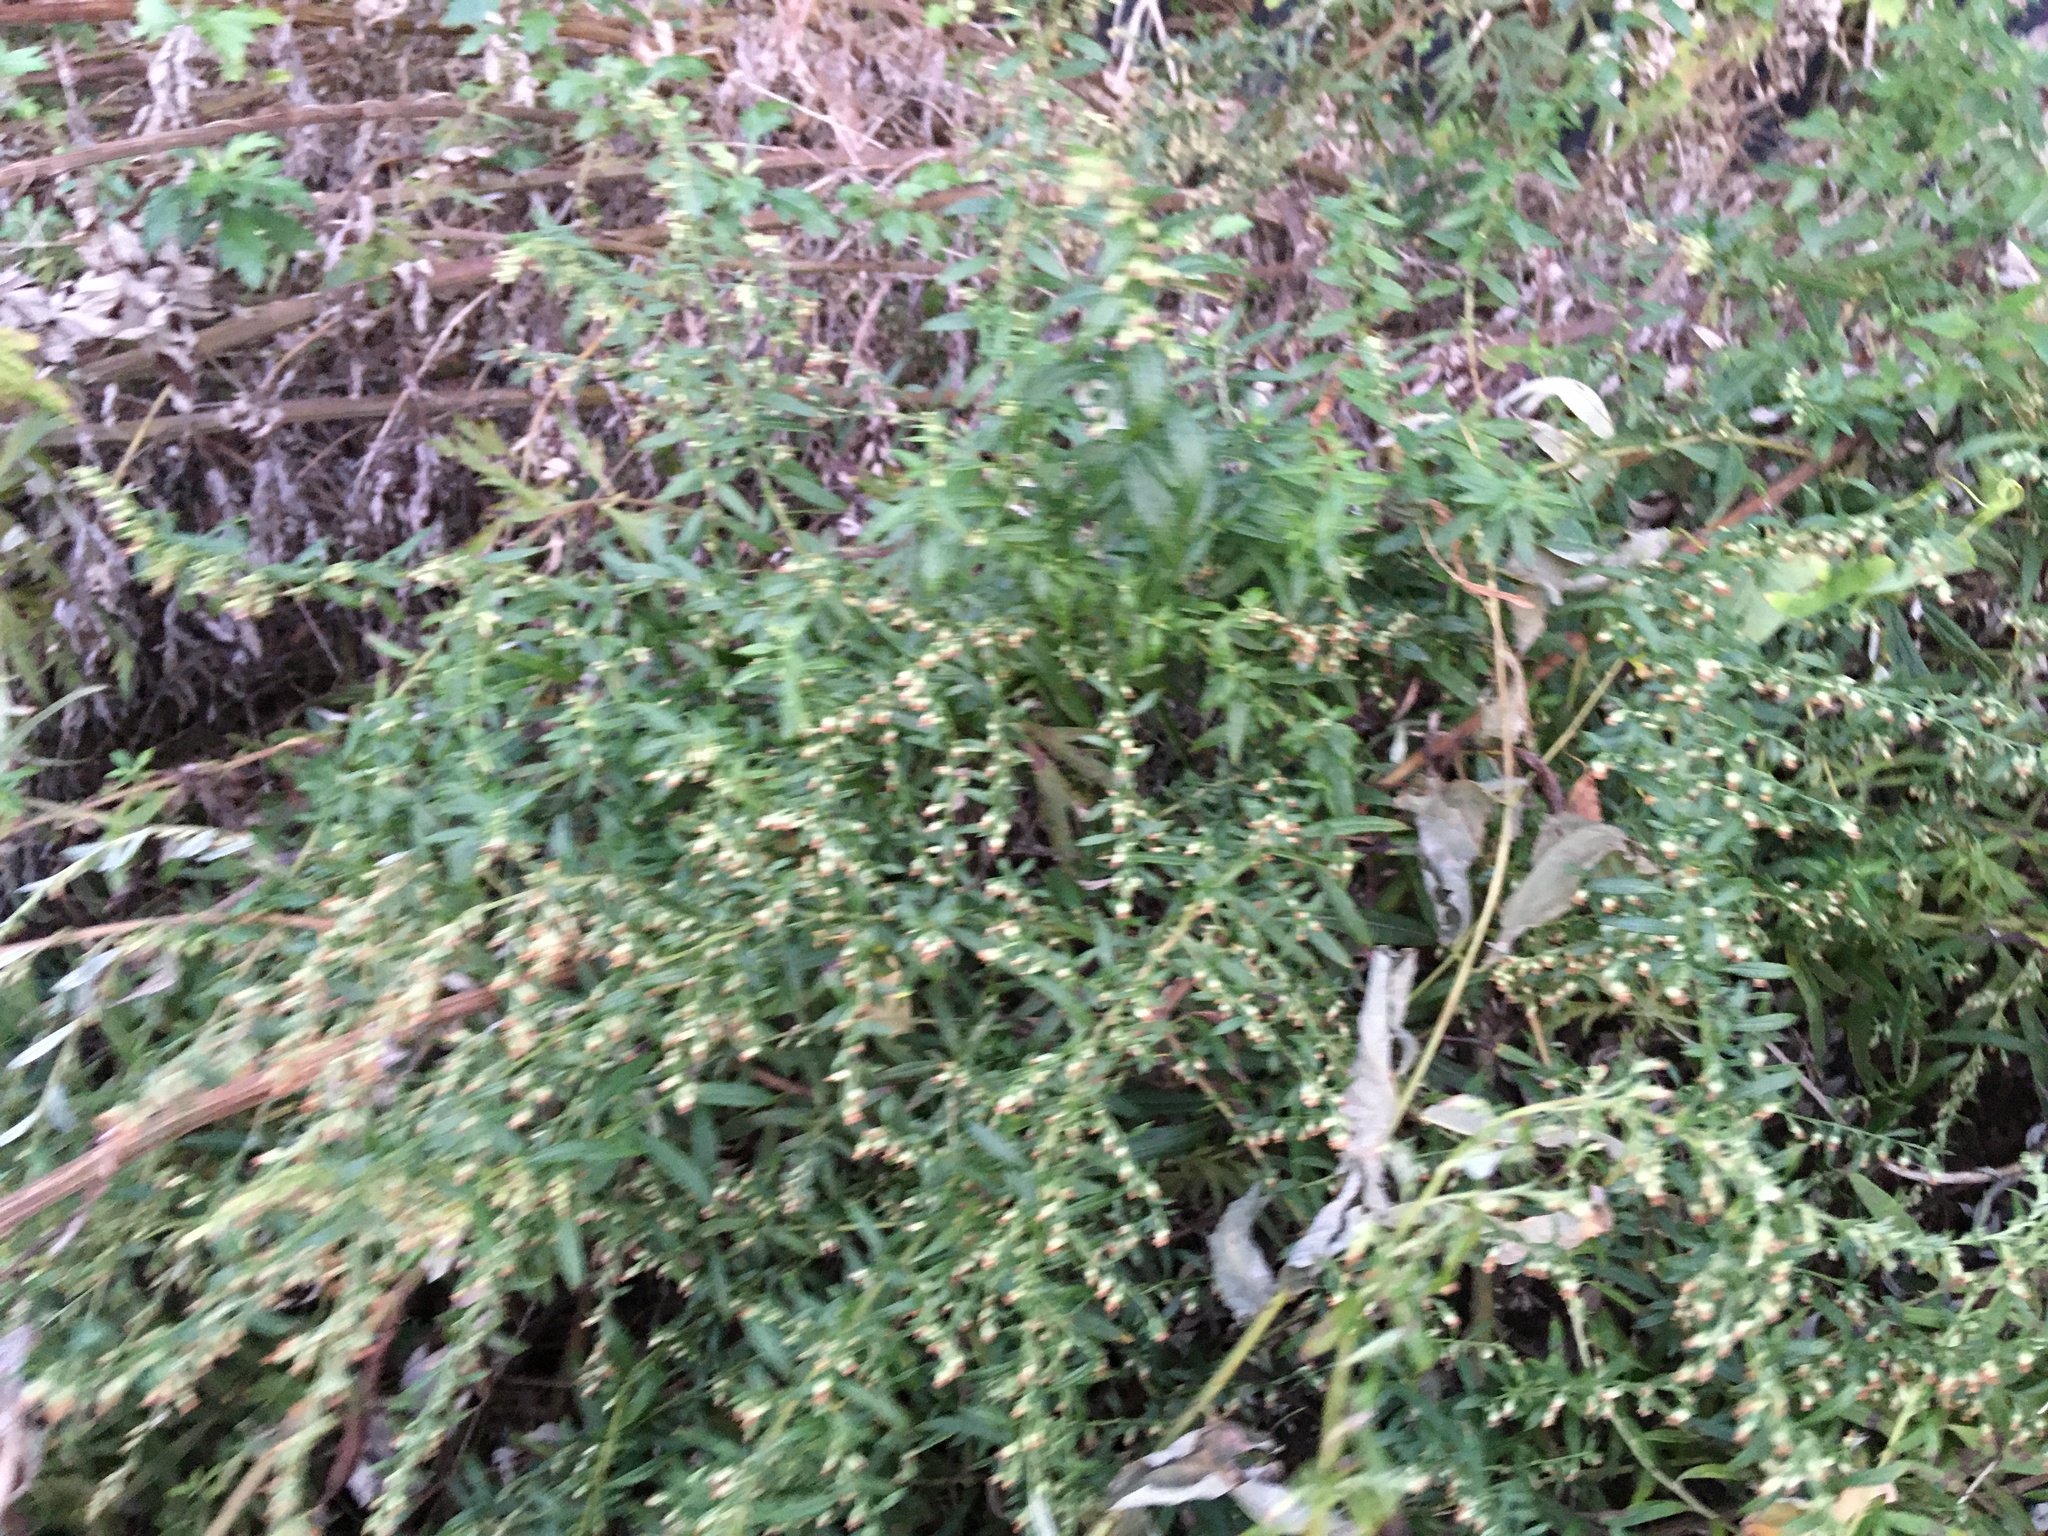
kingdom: Plantae
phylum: Tracheophyta
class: Magnoliopsida
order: Asterales
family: Asteraceae
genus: Artemisia
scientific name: Artemisia vulgaris
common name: Mugwort
